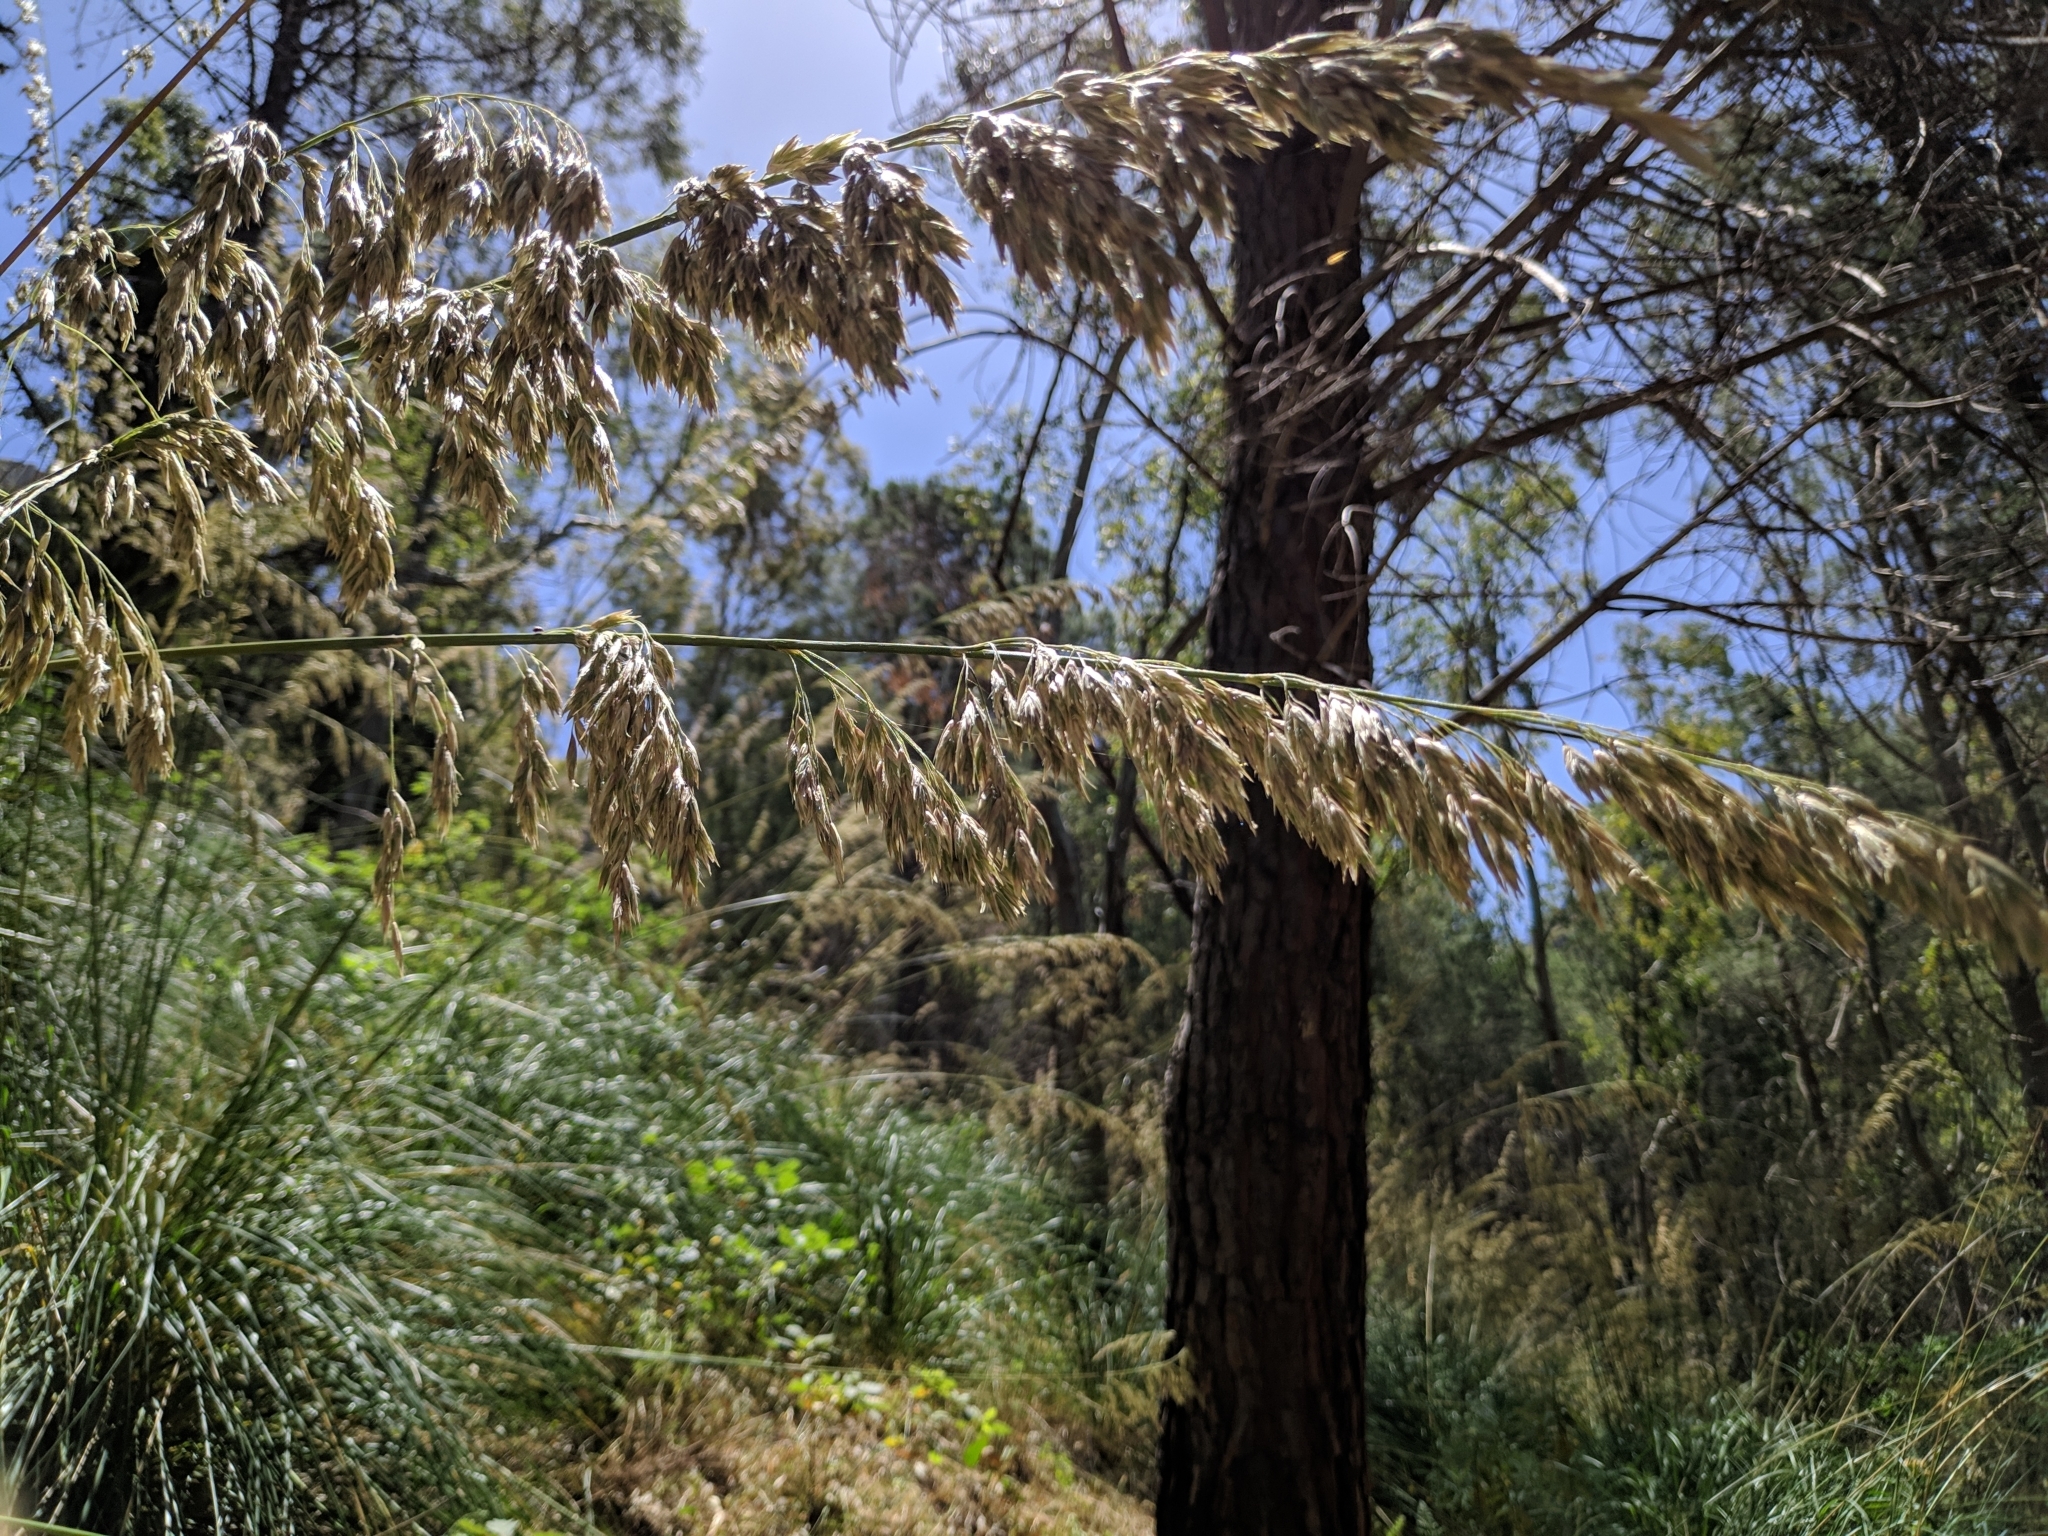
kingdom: Plantae
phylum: Tracheophyta
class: Liliopsida
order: Poales
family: Poaceae
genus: Ampelodesmos
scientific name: Ampelodesmos mauritanicus
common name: Mauritanian grass
